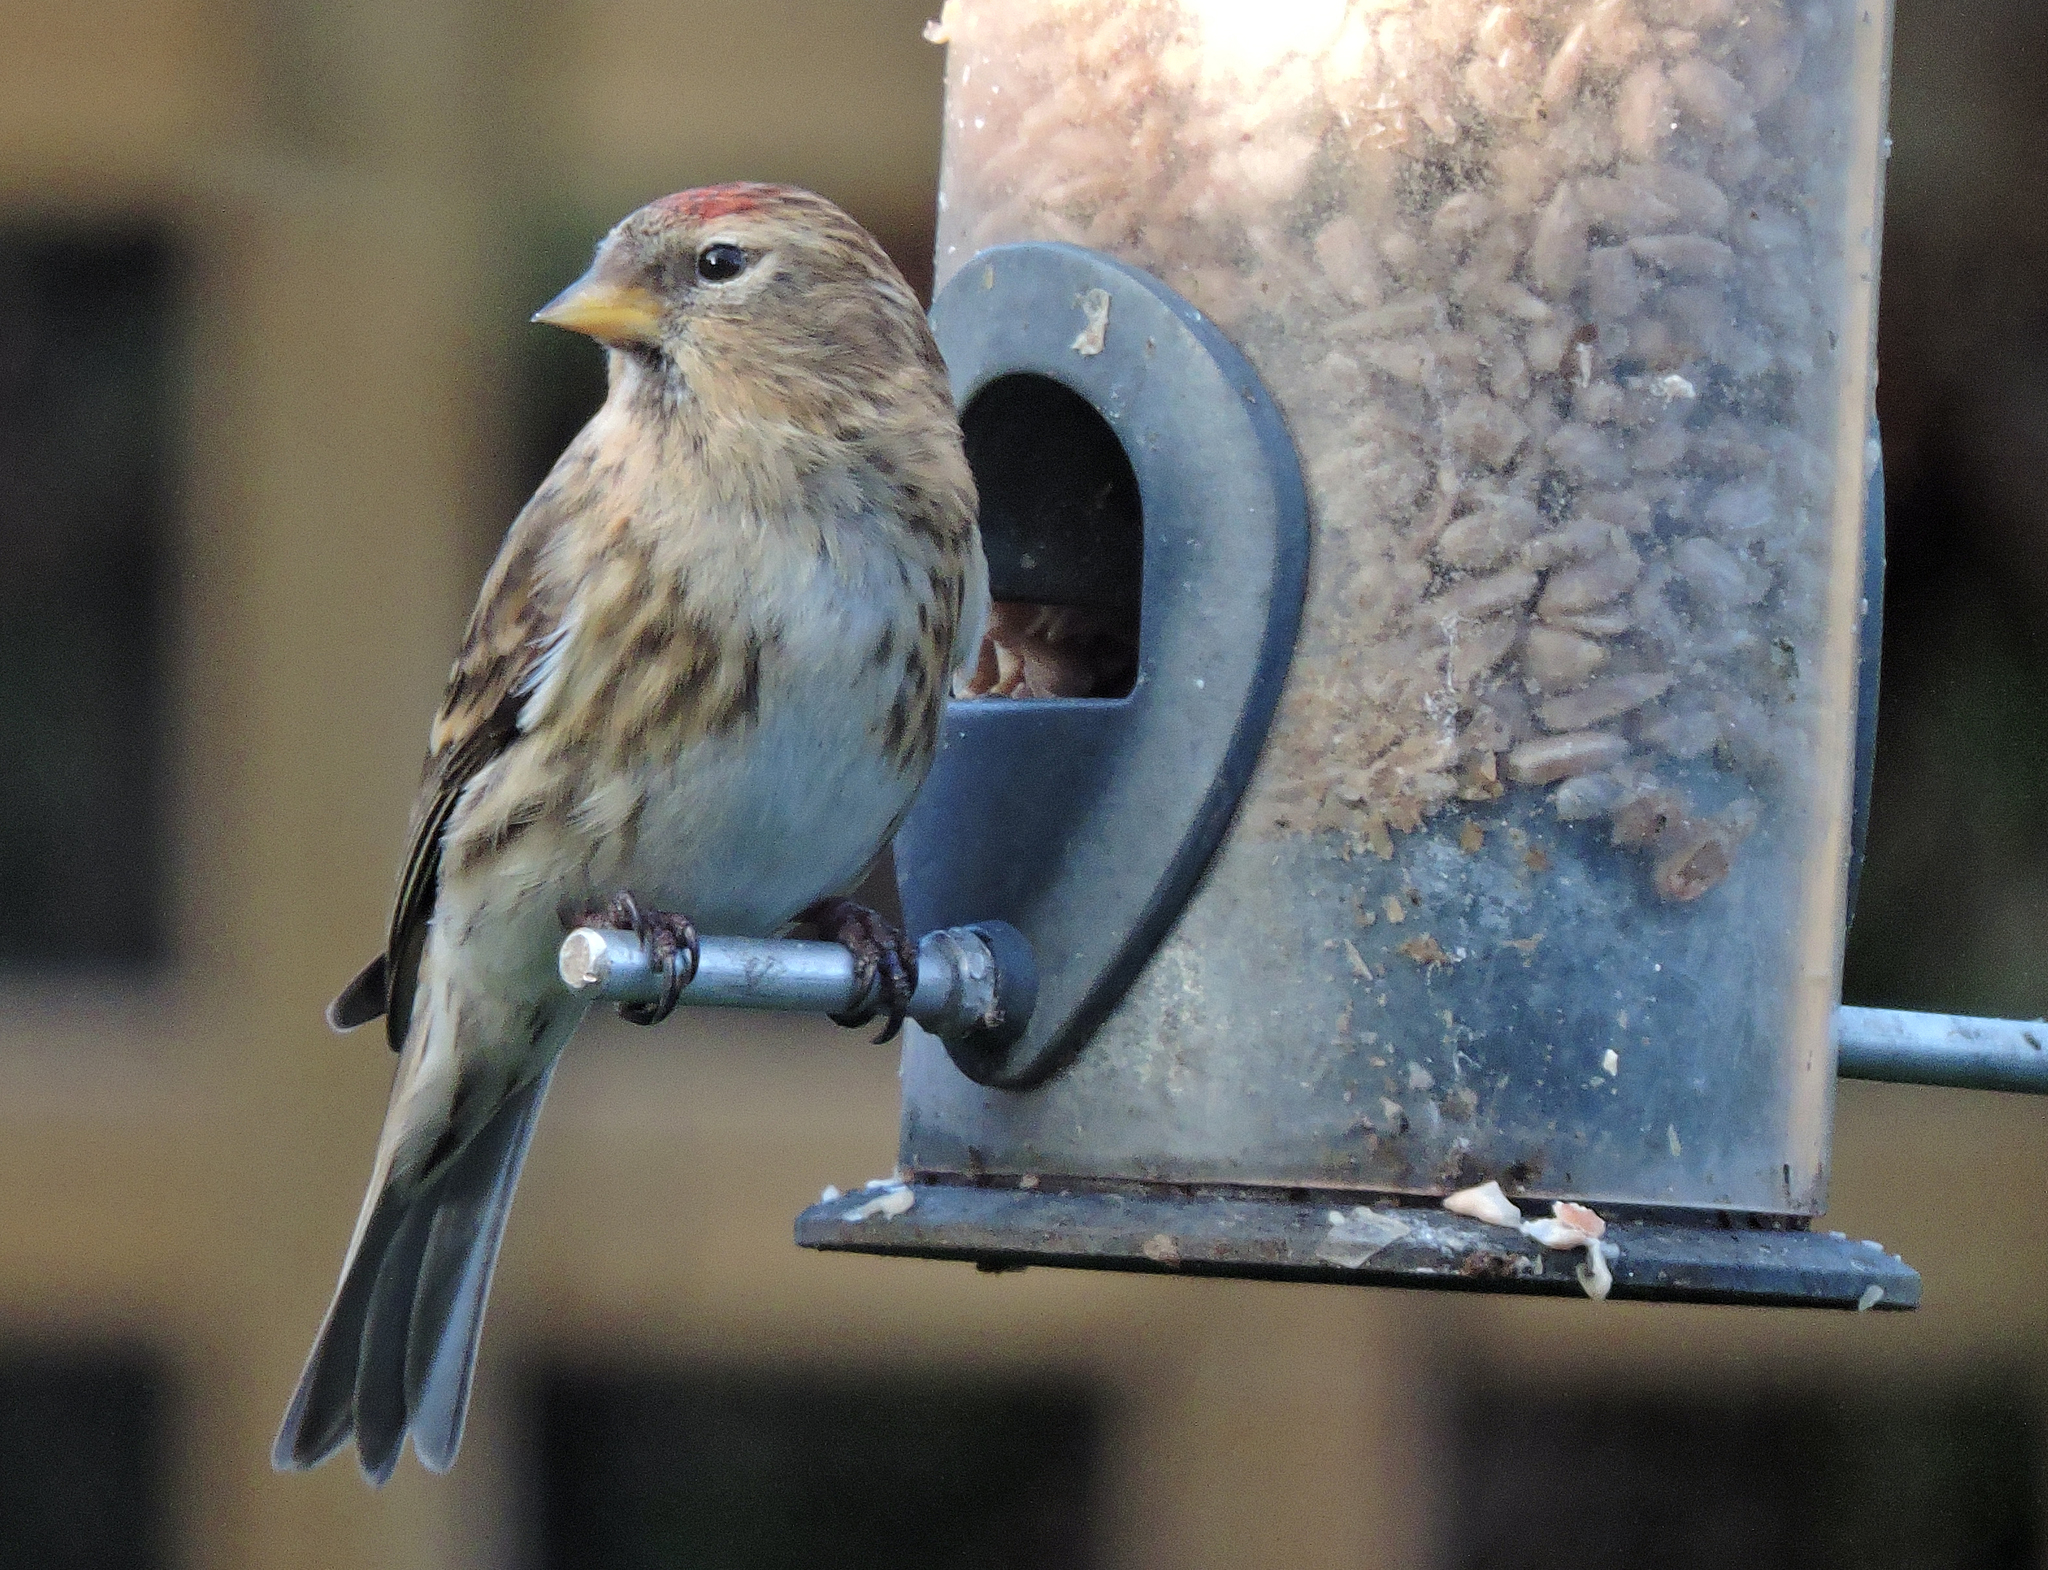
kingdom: Animalia
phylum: Chordata
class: Aves
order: Passeriformes
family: Fringillidae
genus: Acanthis
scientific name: Acanthis flammea
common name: Common redpoll
